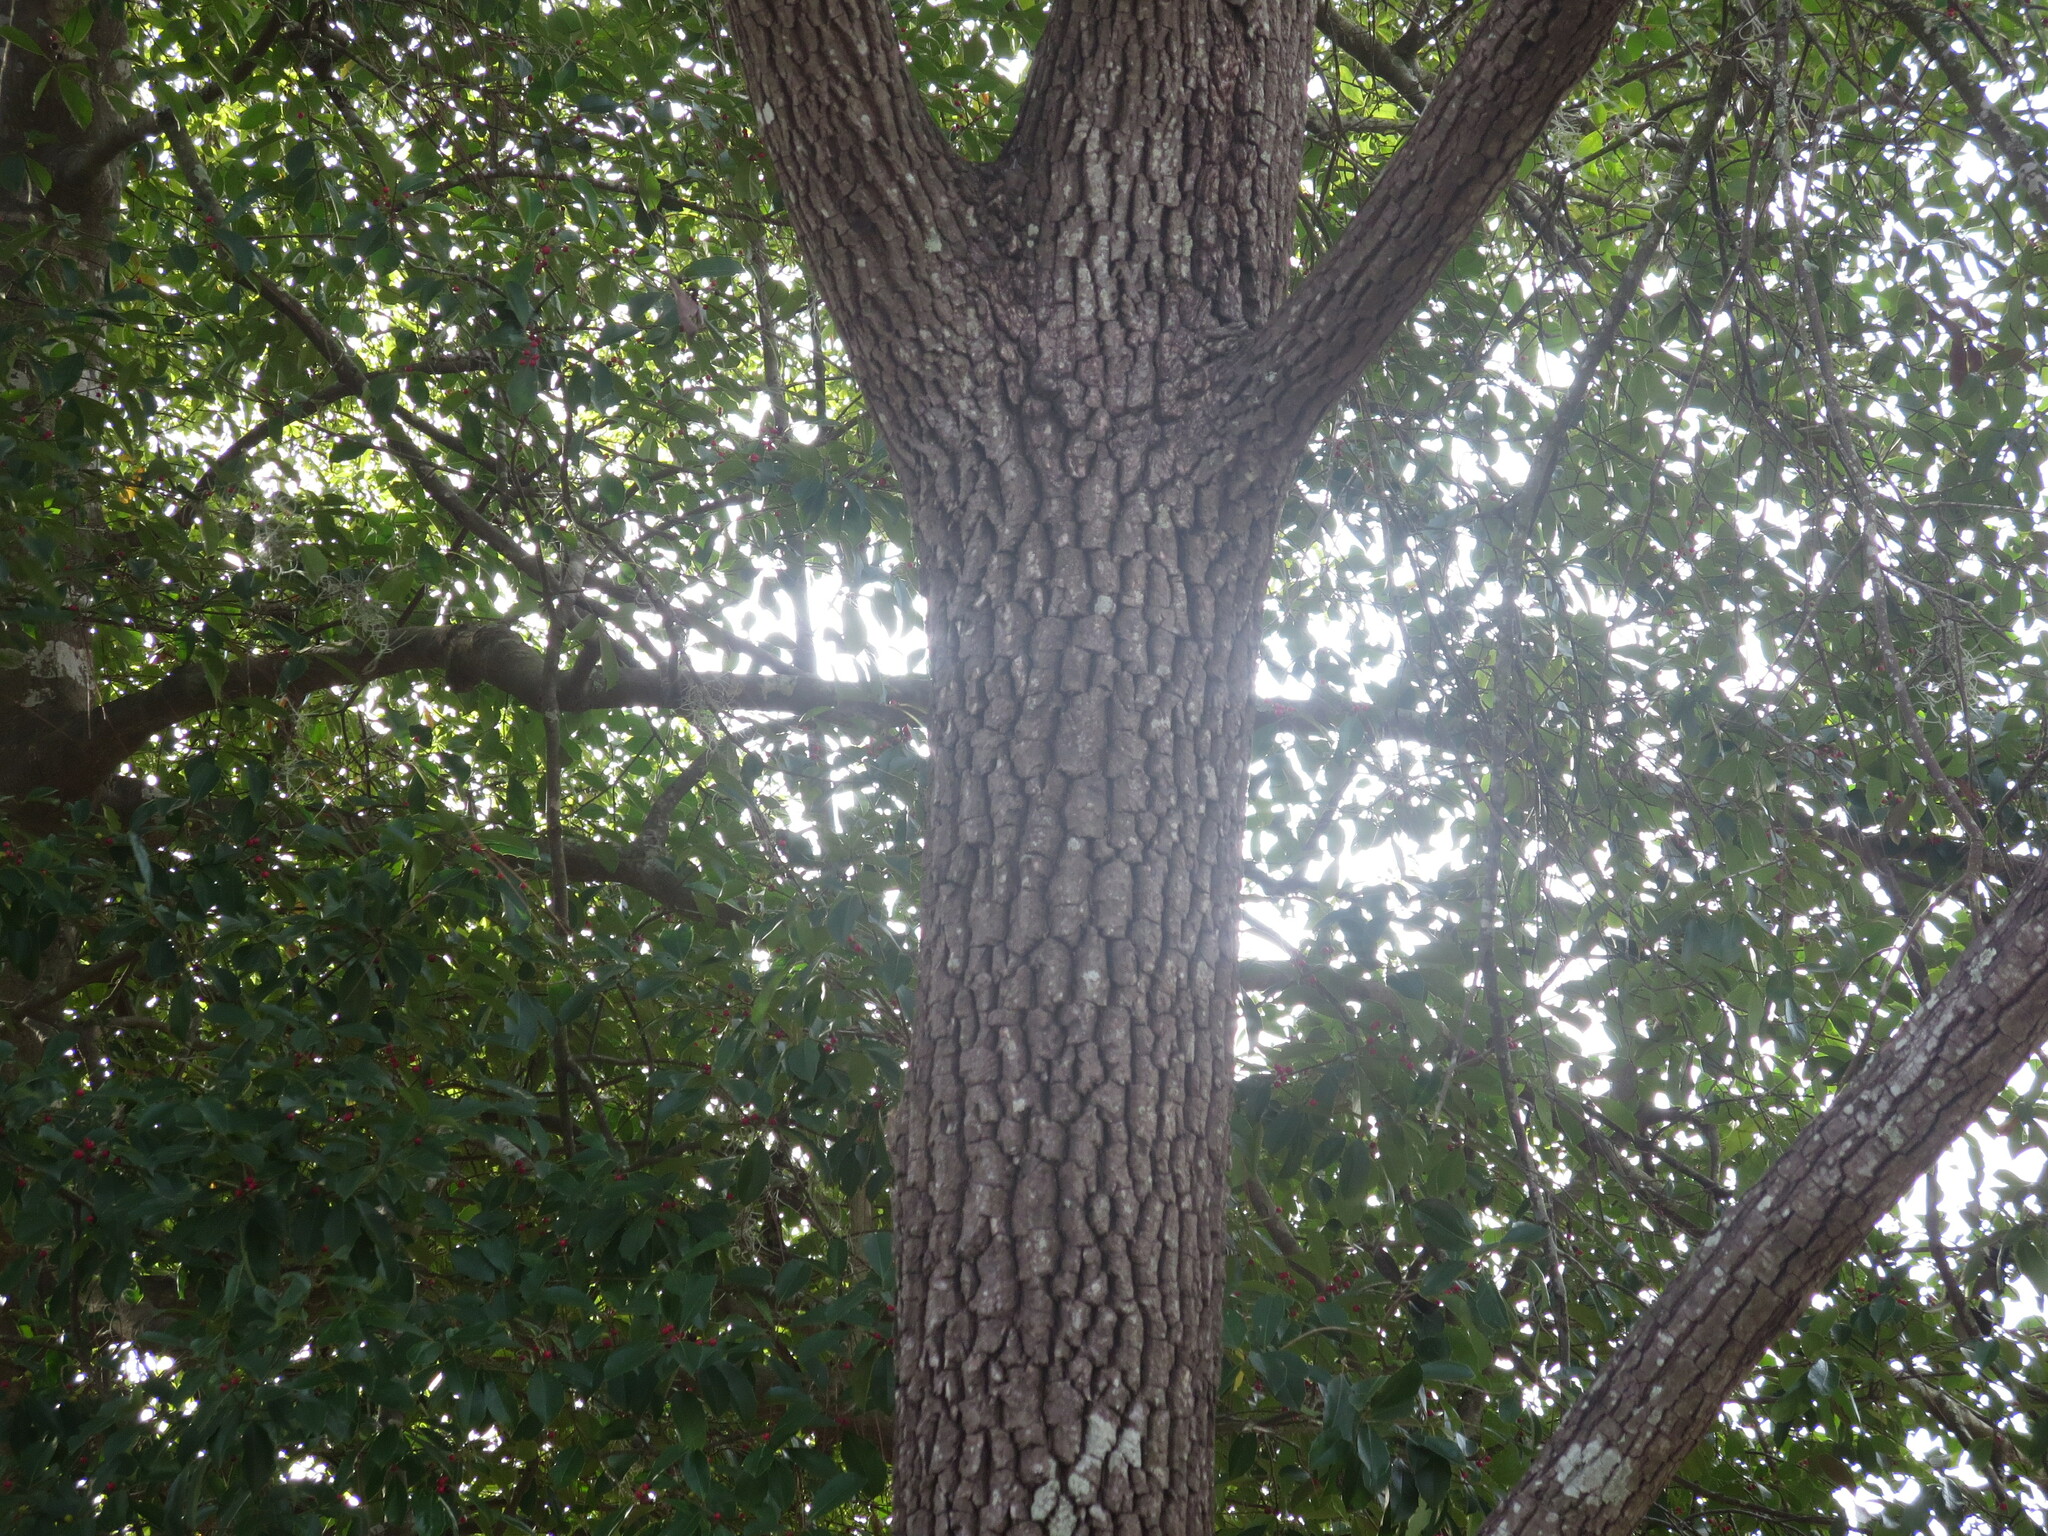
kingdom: Plantae
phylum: Tracheophyta
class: Magnoliopsida
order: Ericales
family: Ebenaceae
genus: Diospyros
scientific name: Diospyros virginiana
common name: Persimmon
